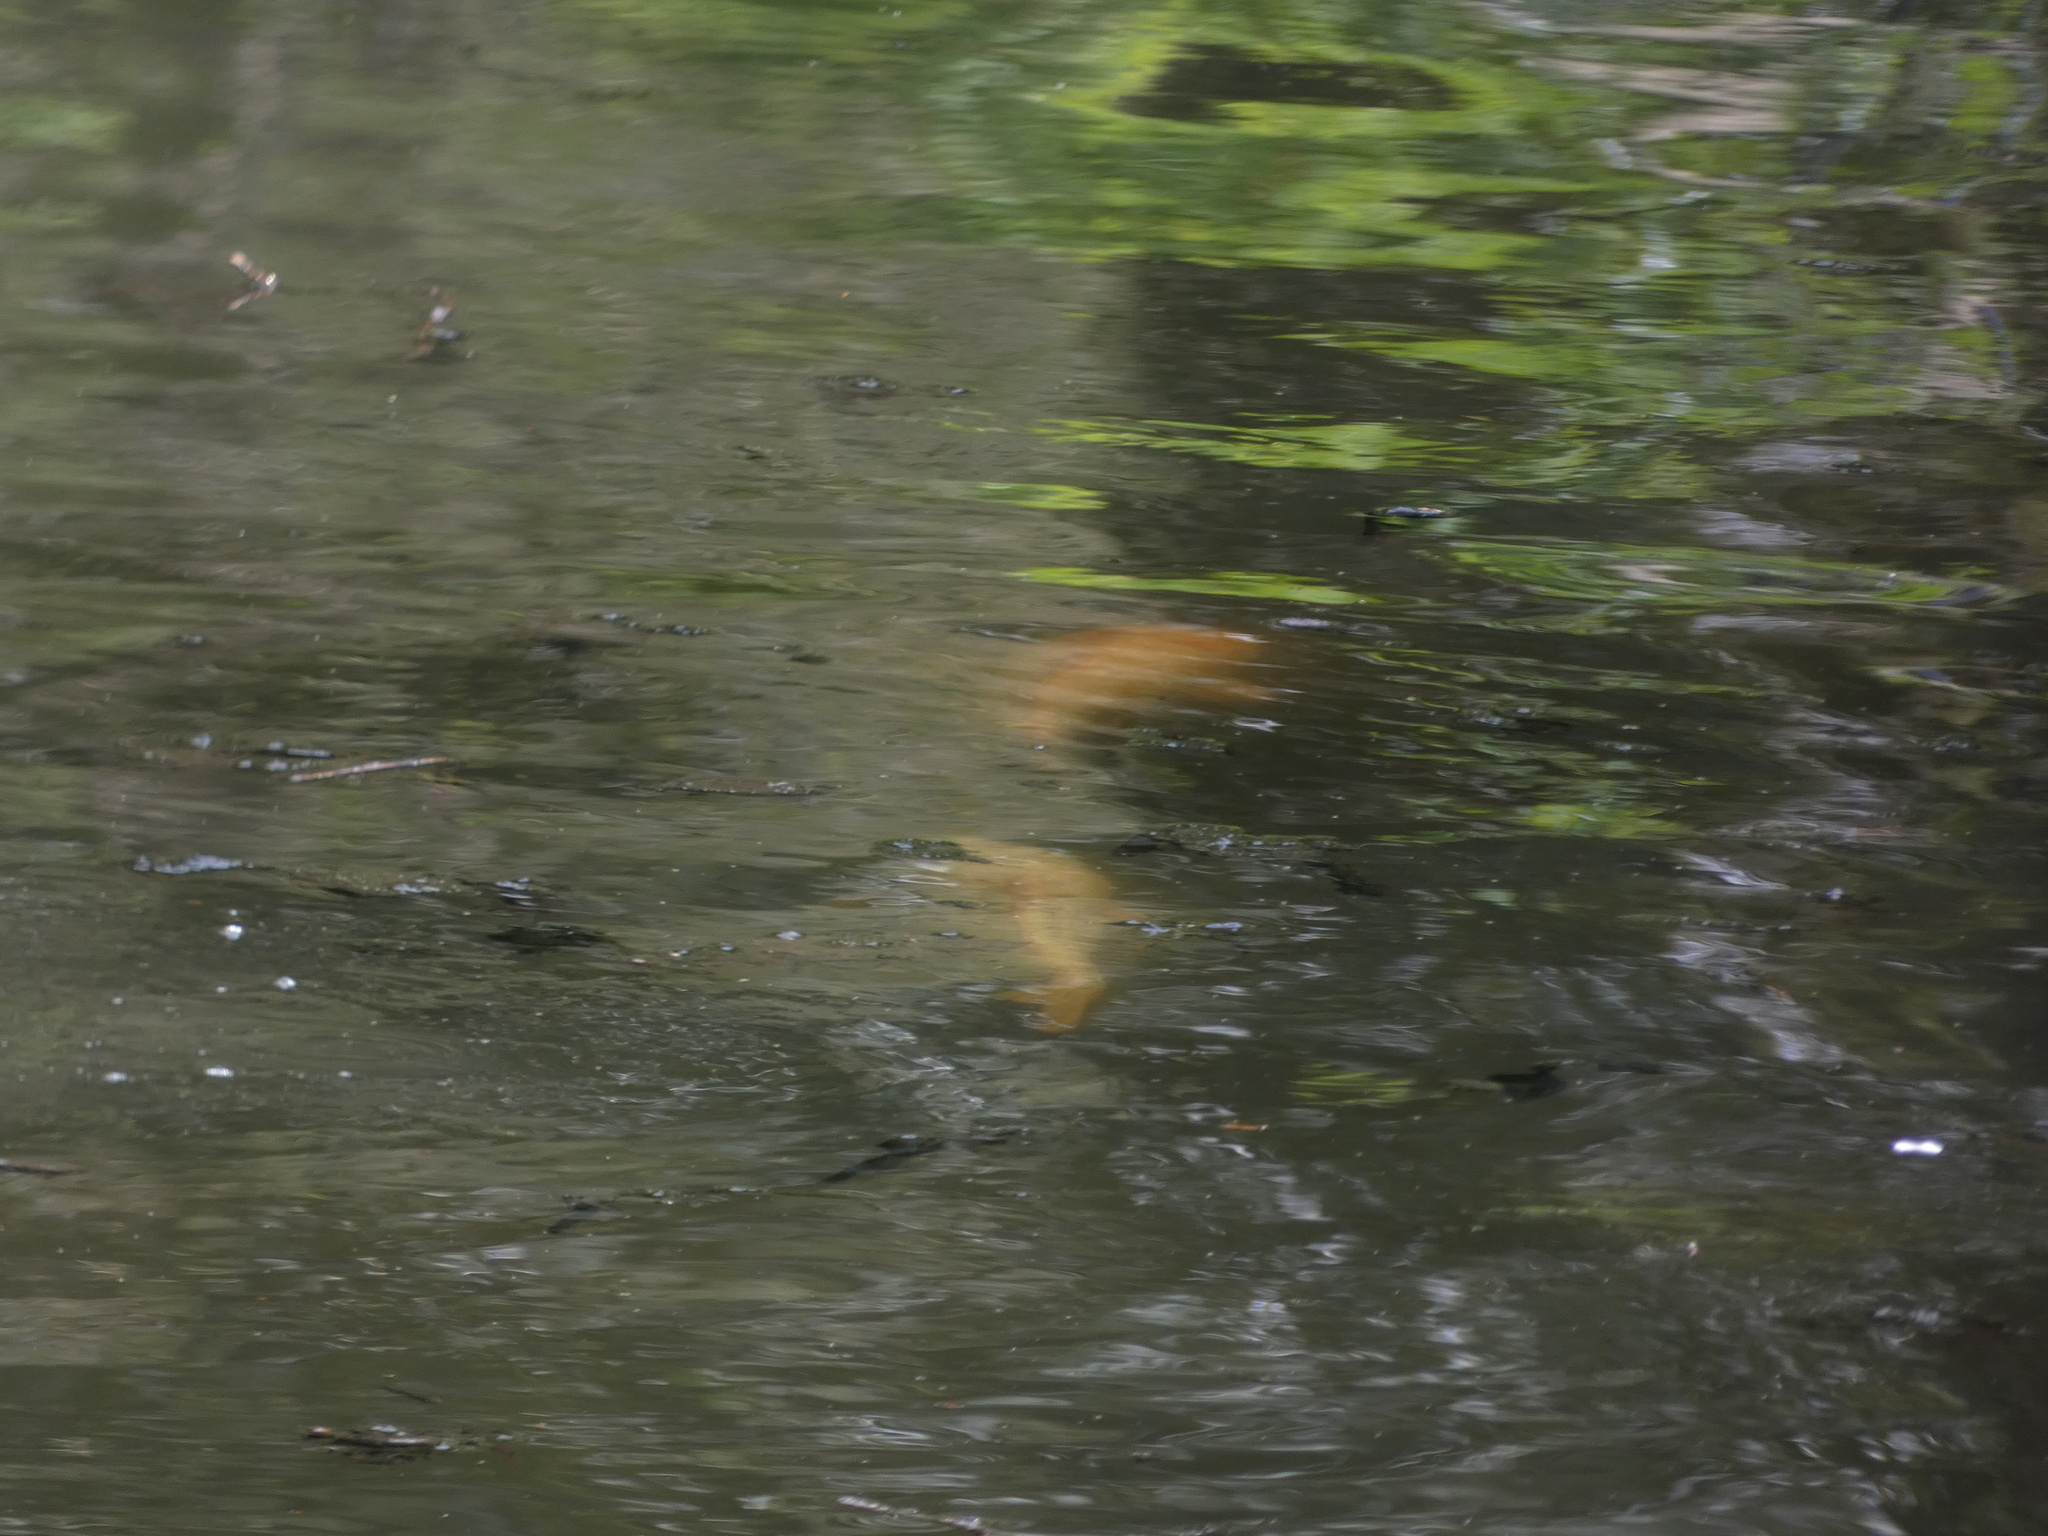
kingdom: Animalia
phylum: Chordata
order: Cypriniformes
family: Cyprinidae
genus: Cyprinus
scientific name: Cyprinus rubrofuscus
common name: Koi
